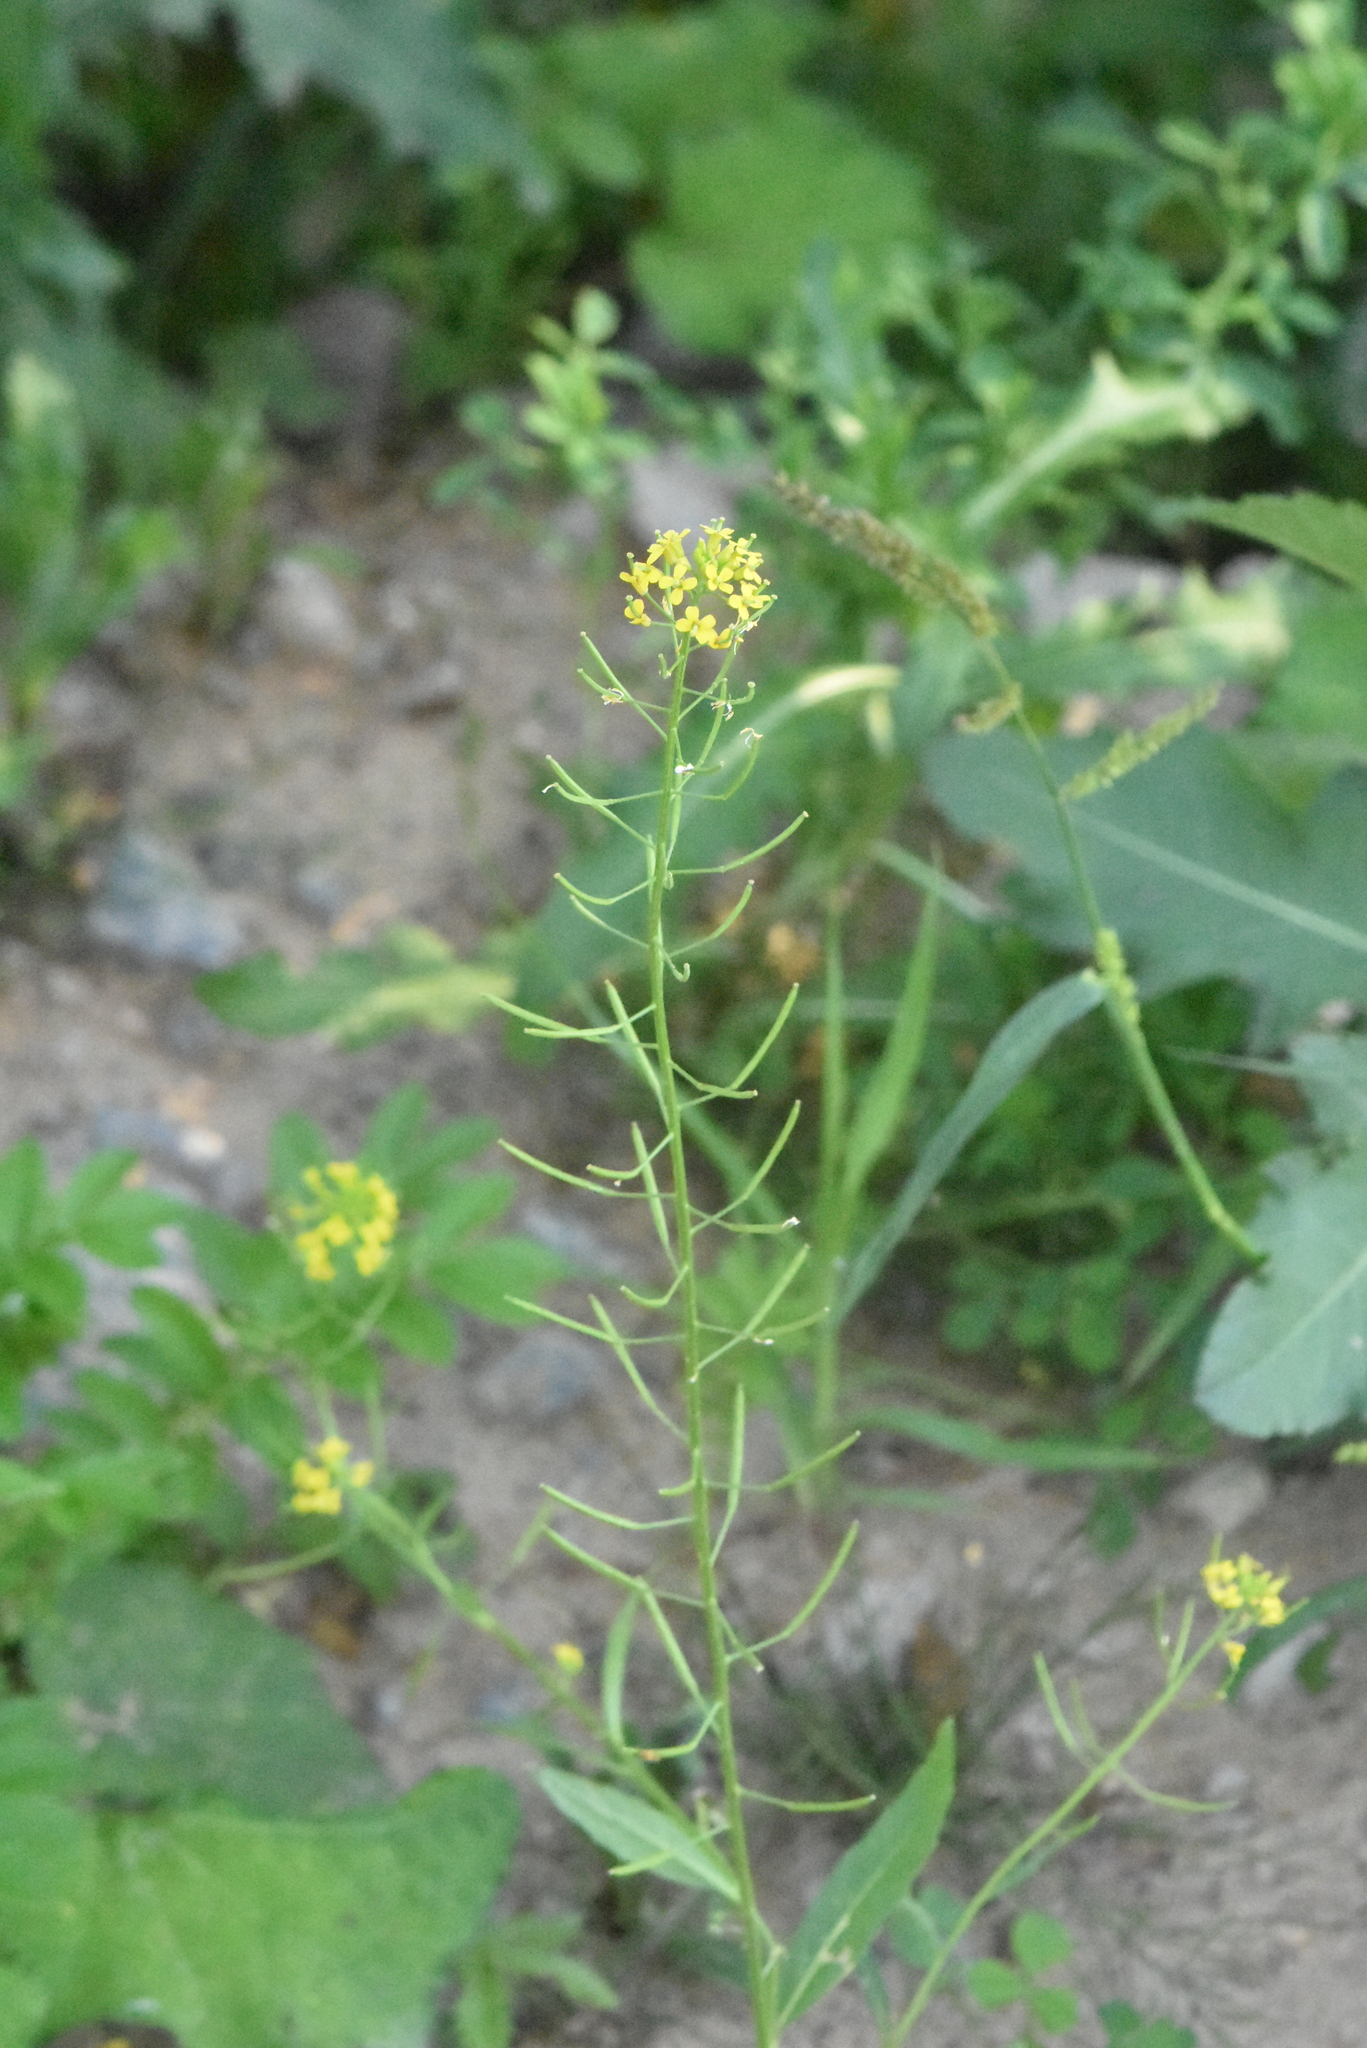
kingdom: Plantae
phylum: Tracheophyta
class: Magnoliopsida
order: Brassicales
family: Brassicaceae
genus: Erysimum
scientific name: Erysimum cheiranthoides
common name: Treacle mustard
